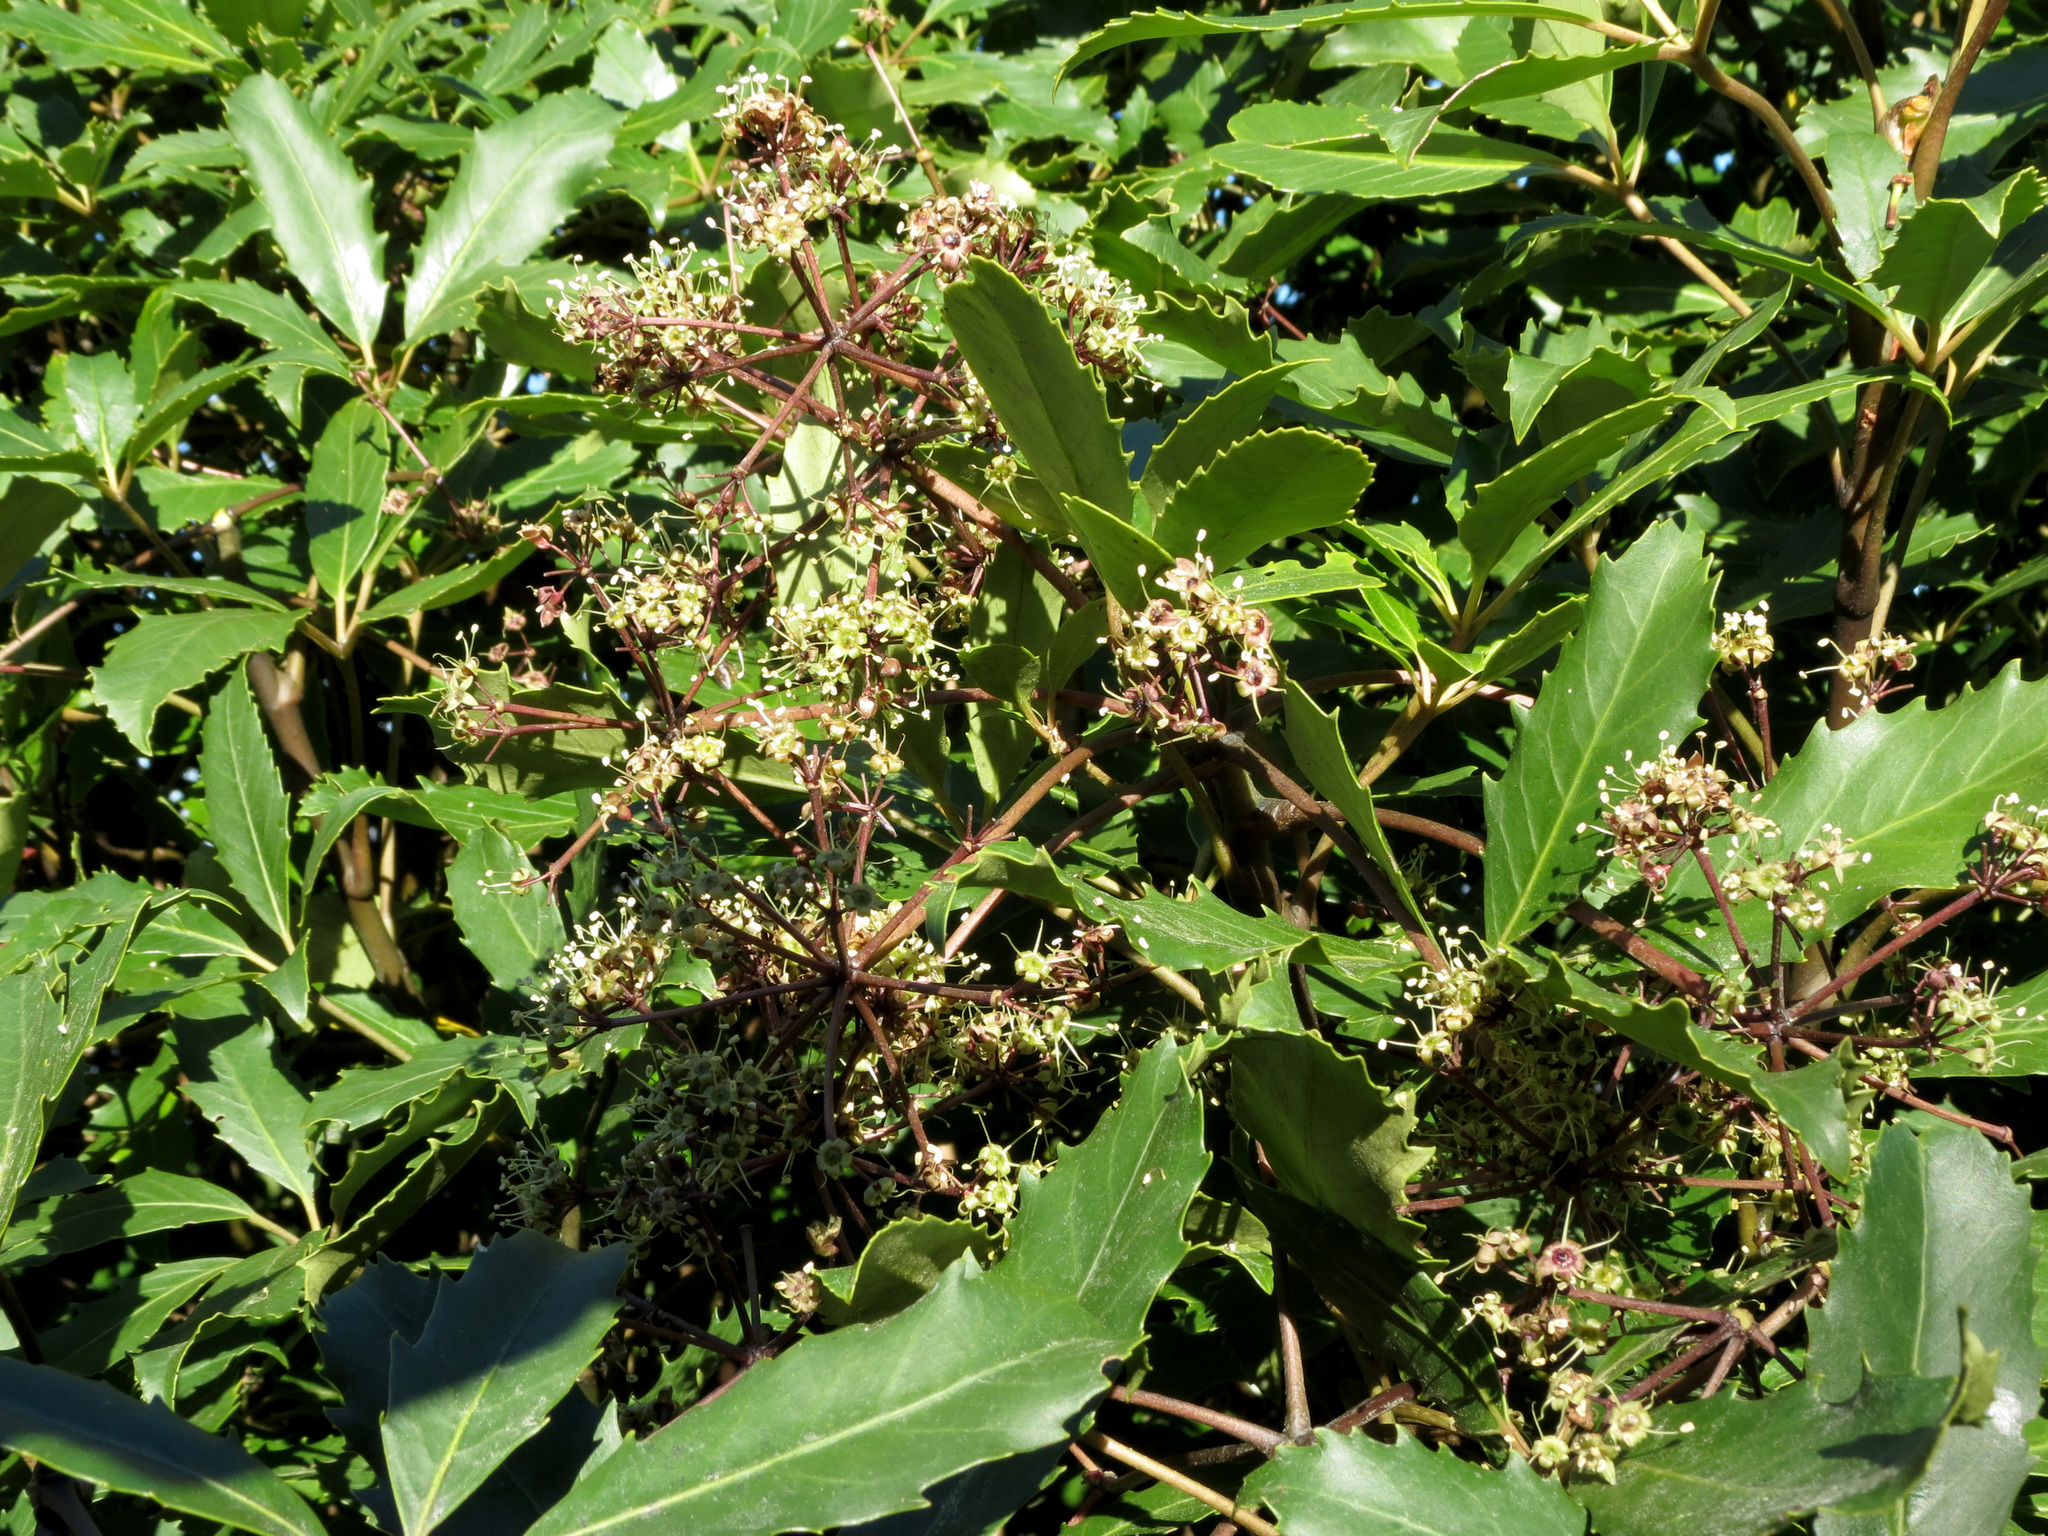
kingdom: Plantae
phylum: Tracheophyta
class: Magnoliopsida
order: Apiales
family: Araliaceae
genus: Neopanax
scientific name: Neopanax arboreus
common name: Five-fingers
